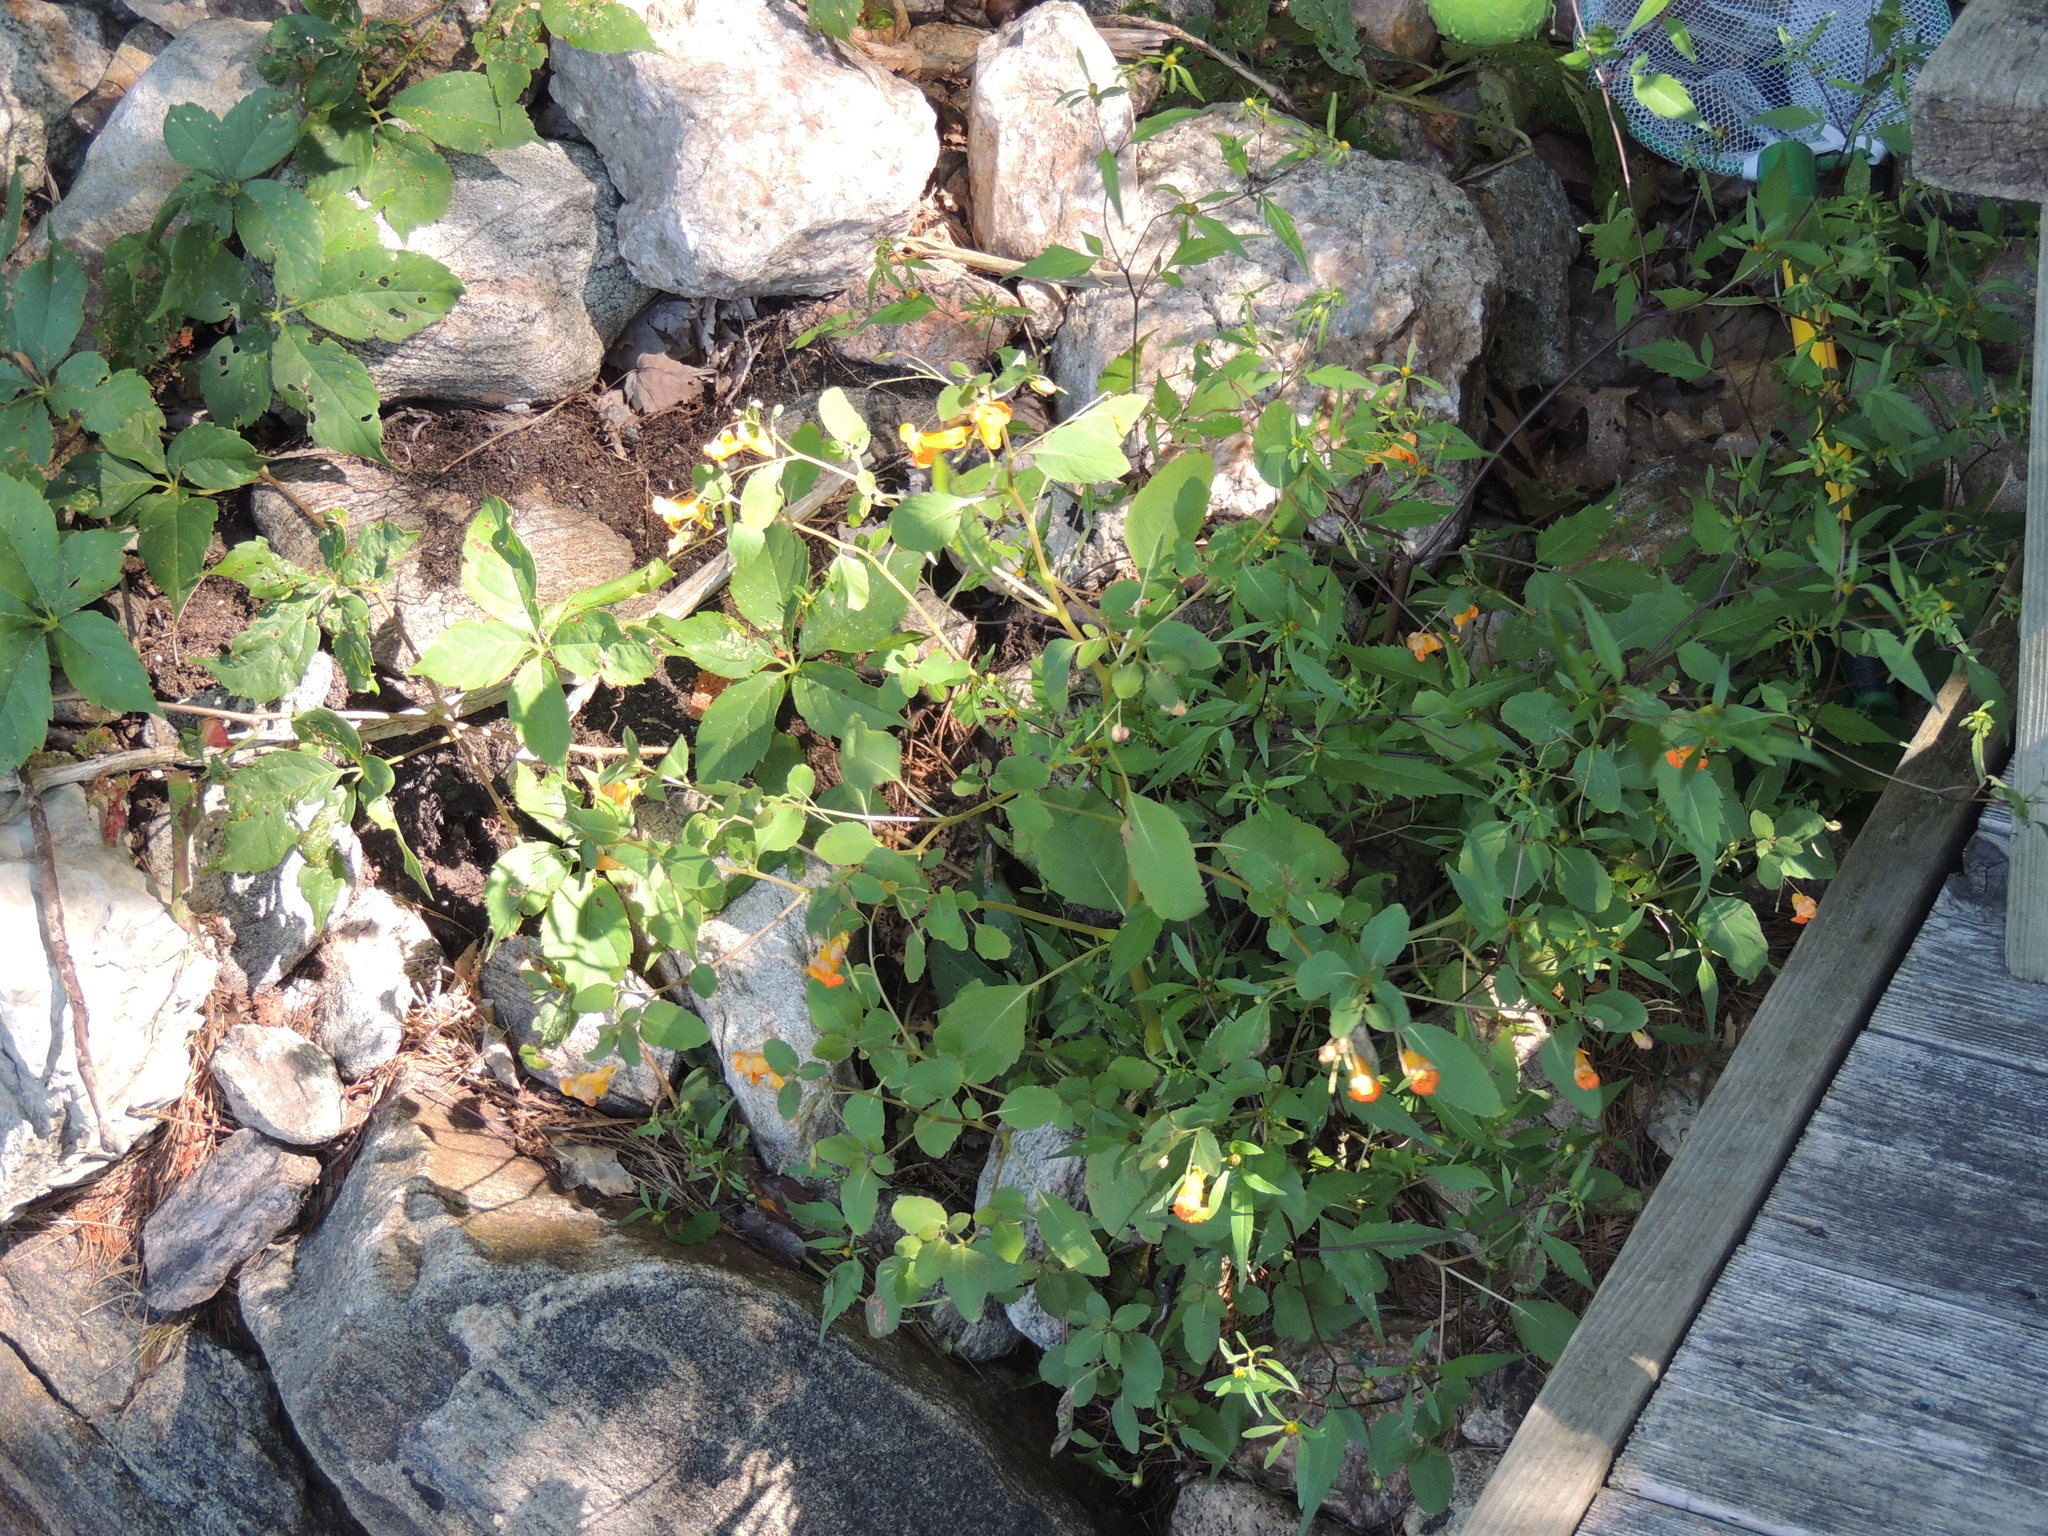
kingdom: Plantae
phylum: Tracheophyta
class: Magnoliopsida
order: Ericales
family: Balsaminaceae
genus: Impatiens
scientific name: Impatiens capensis
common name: Orange balsam
